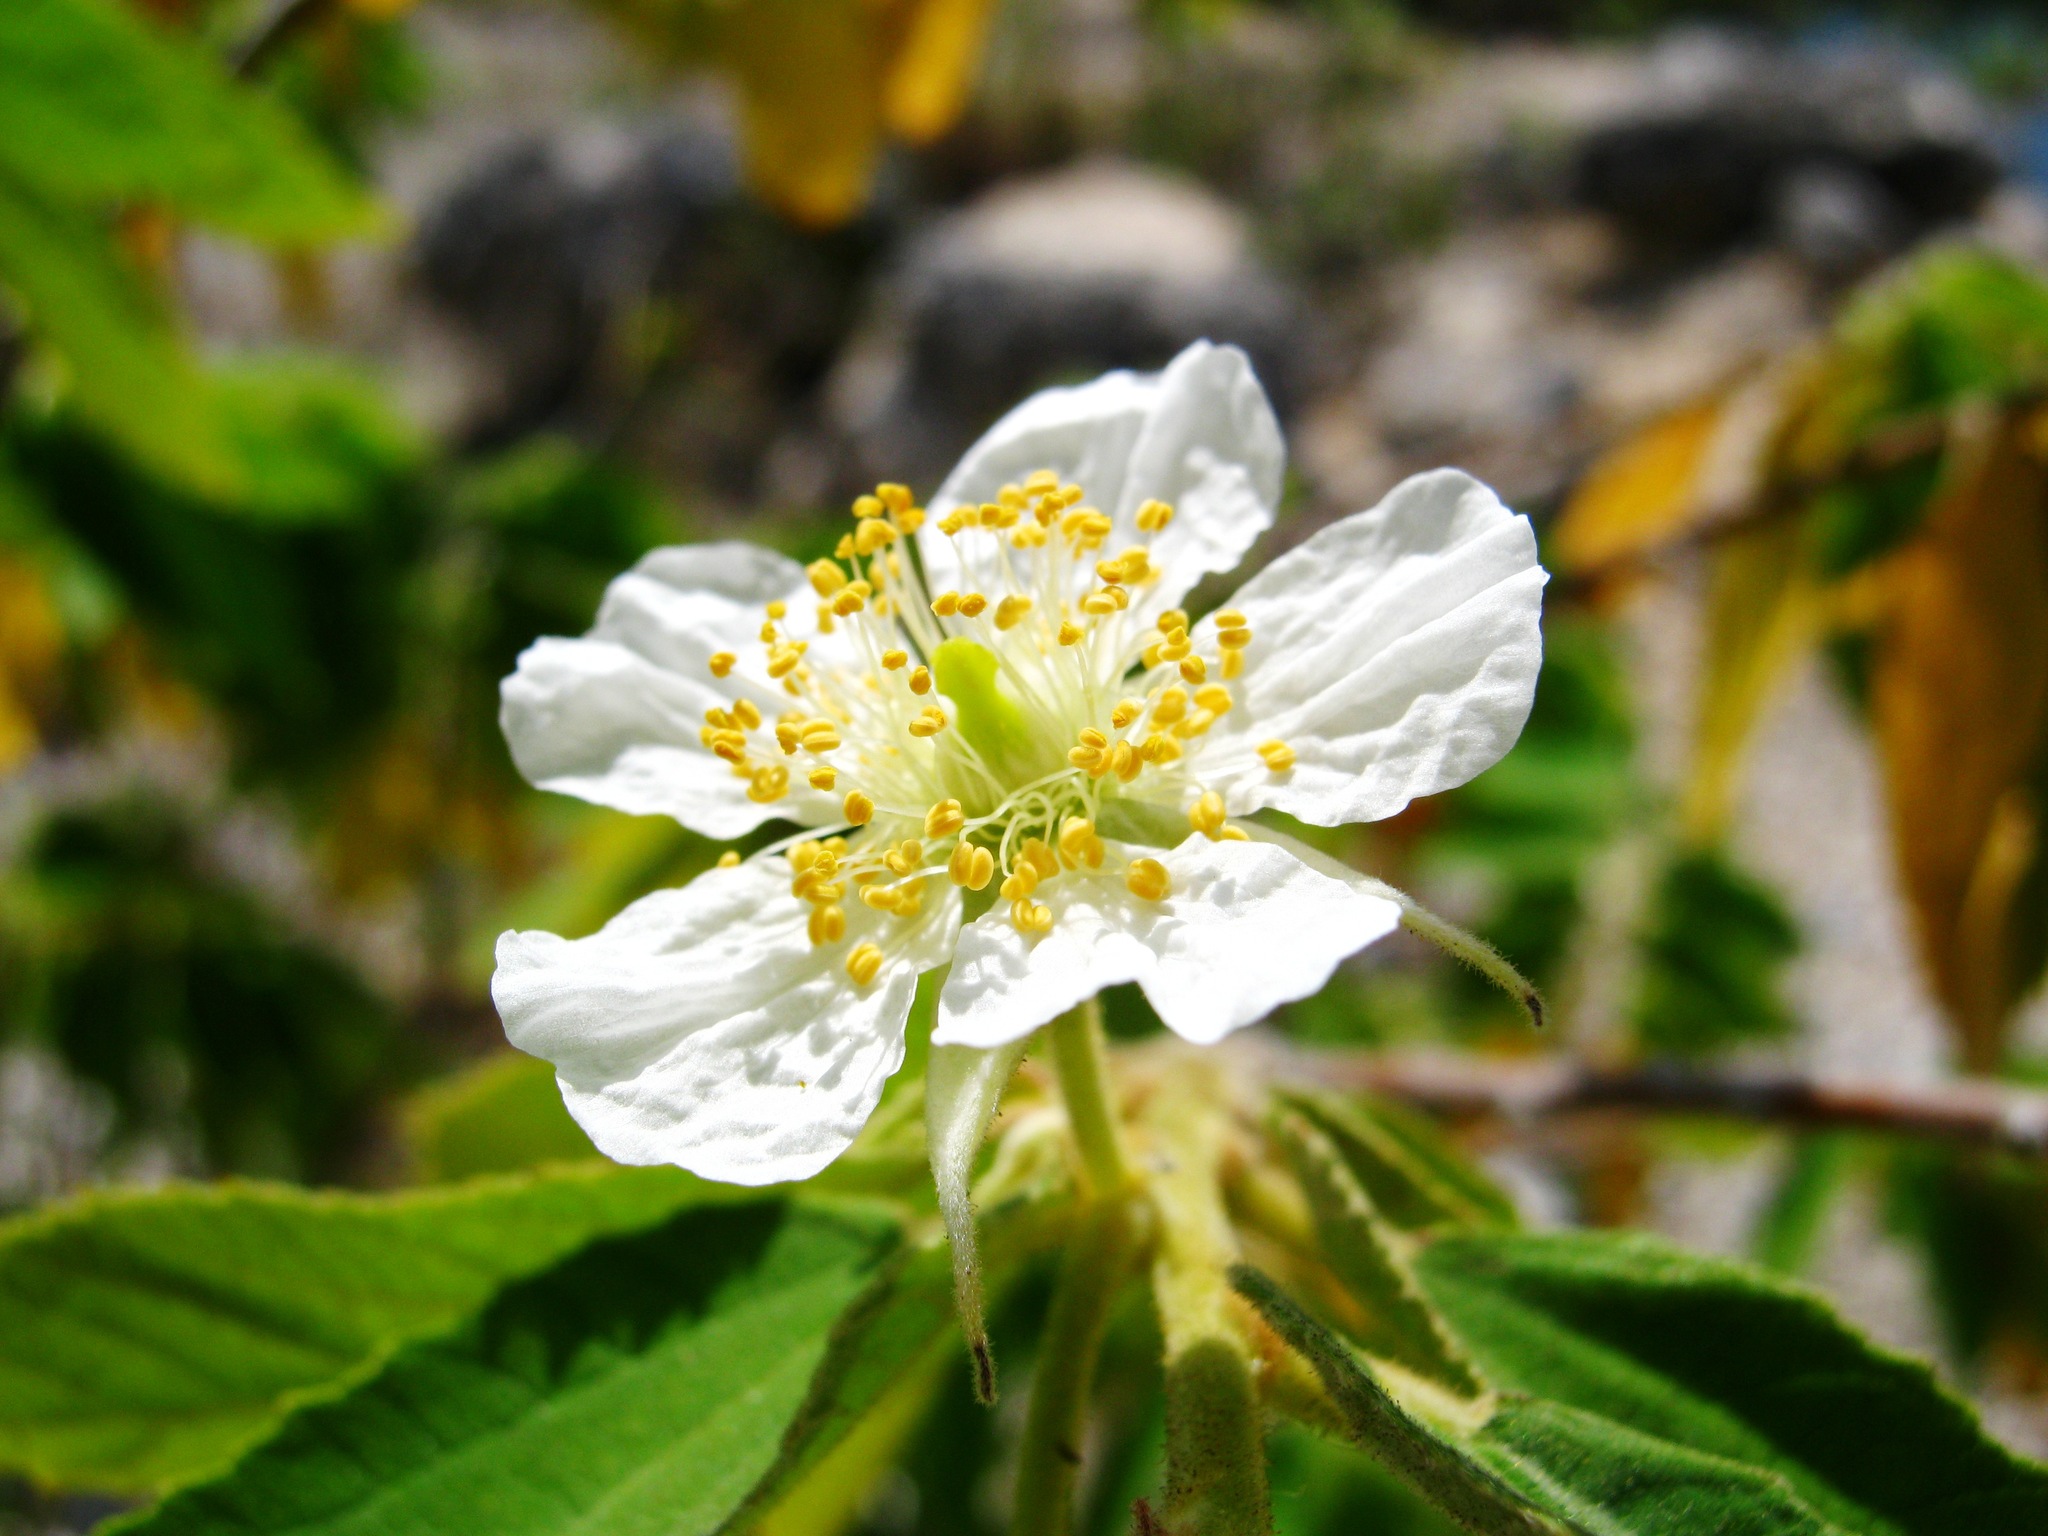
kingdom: Plantae
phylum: Tracheophyta
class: Magnoliopsida
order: Malvales
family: Muntingiaceae
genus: Muntingia
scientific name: Muntingia calabura
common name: Strawberrytree
